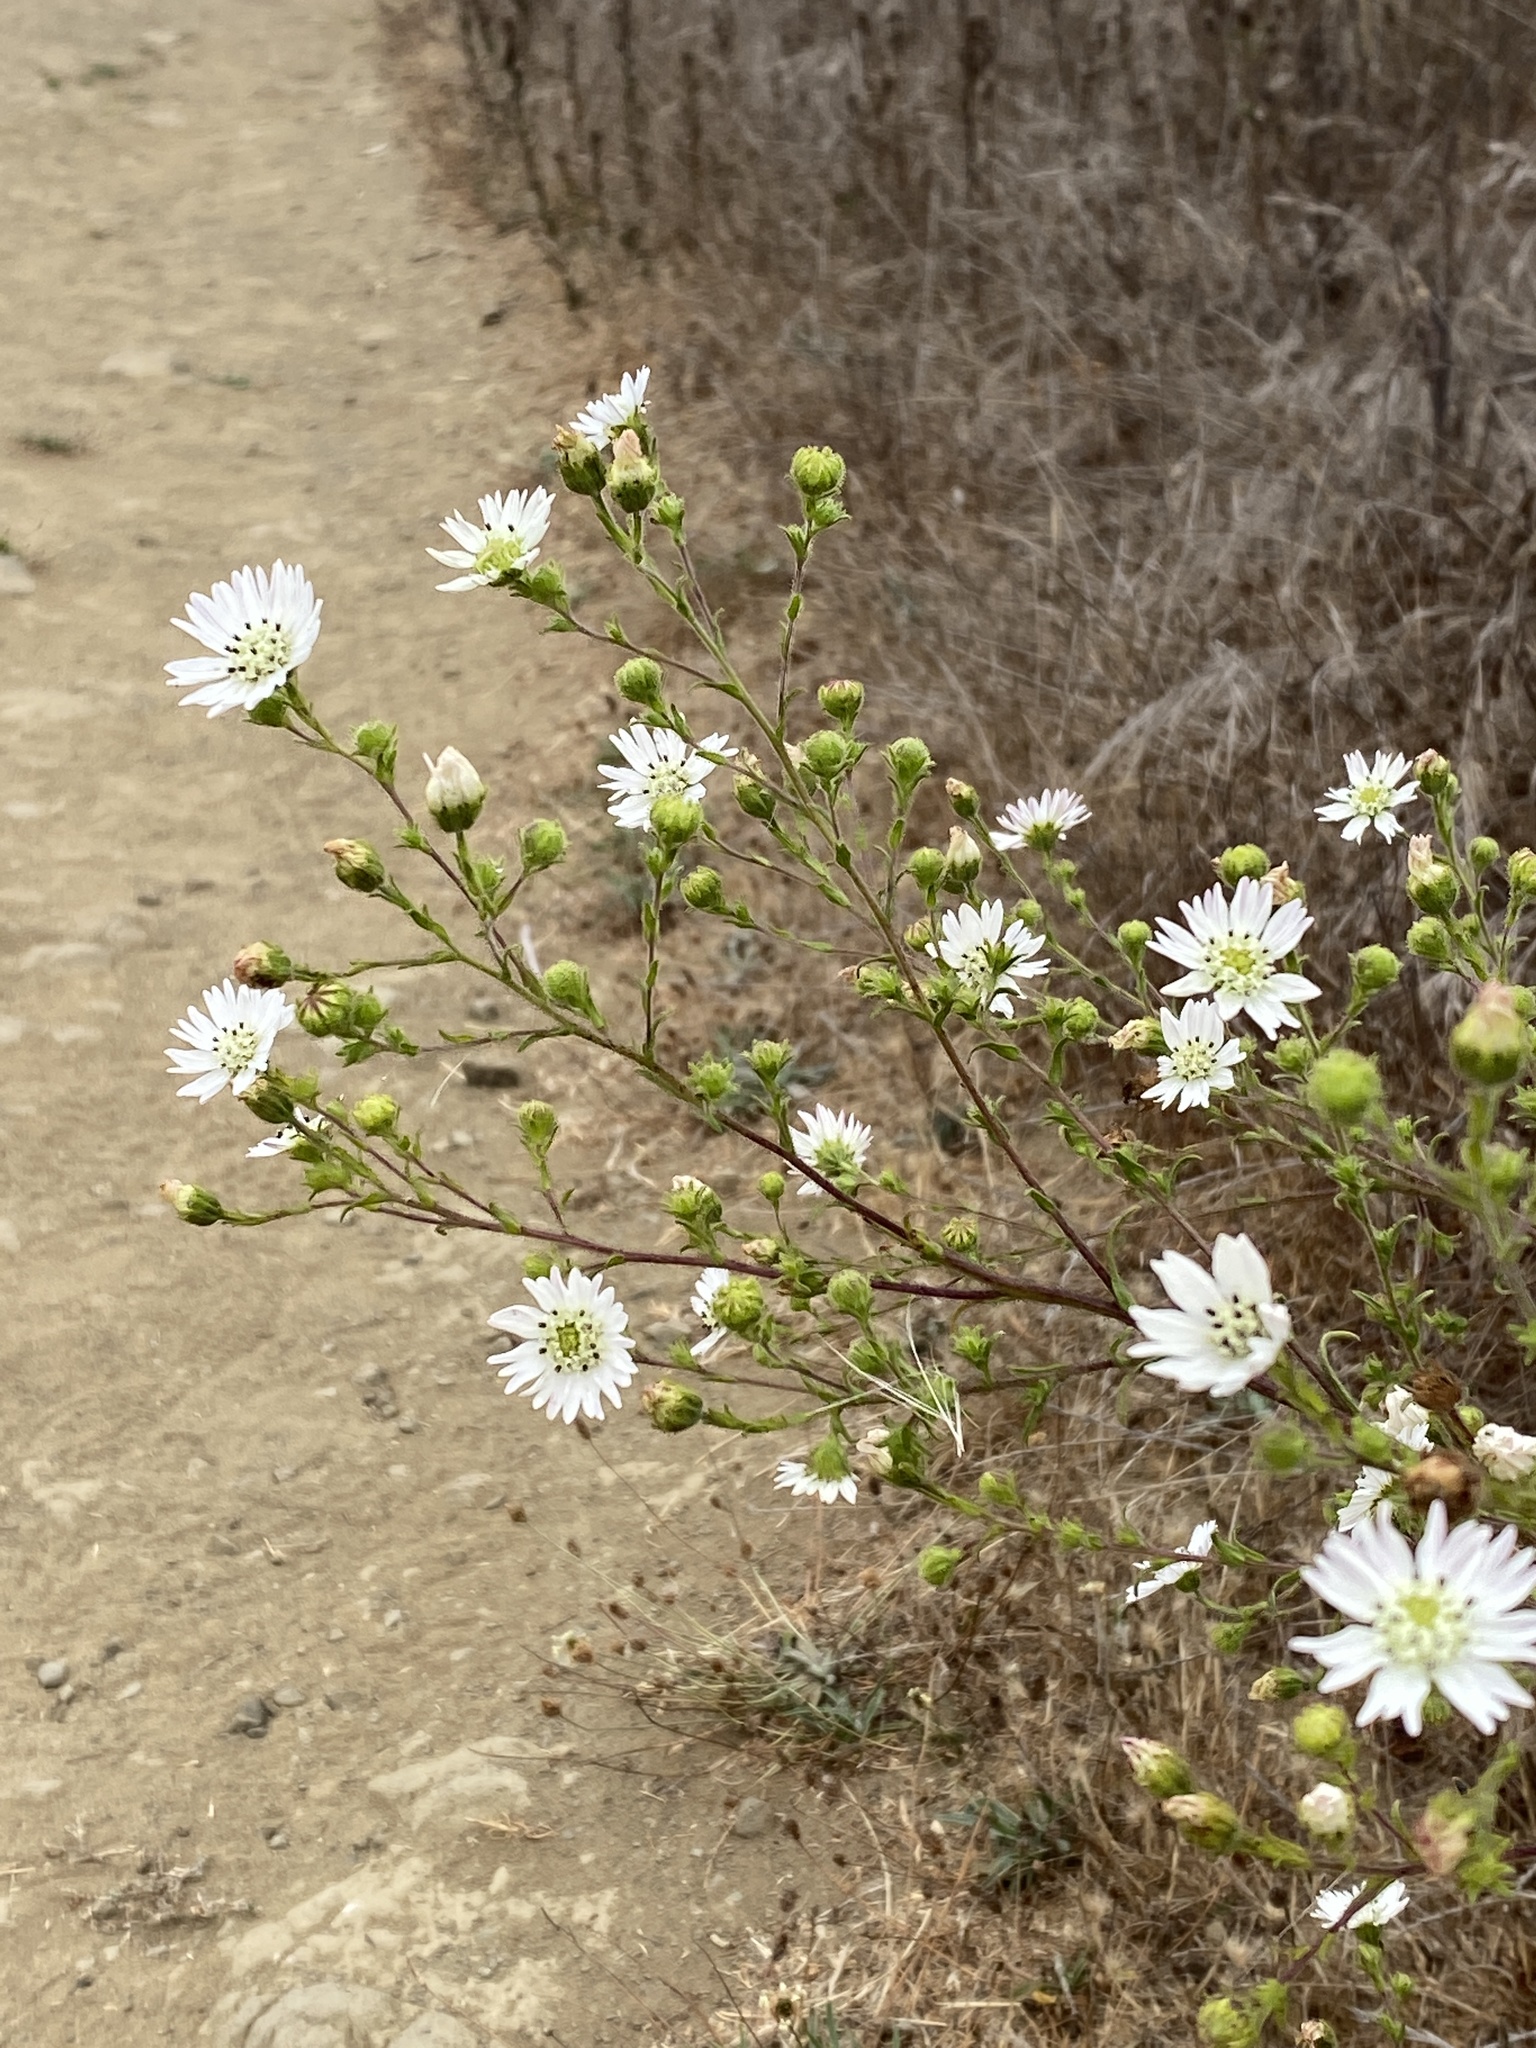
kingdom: Plantae
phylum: Tracheophyta
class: Magnoliopsida
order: Asterales
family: Asteraceae
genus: Hemizonia
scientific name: Hemizonia congesta
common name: Hayfield tarweed
